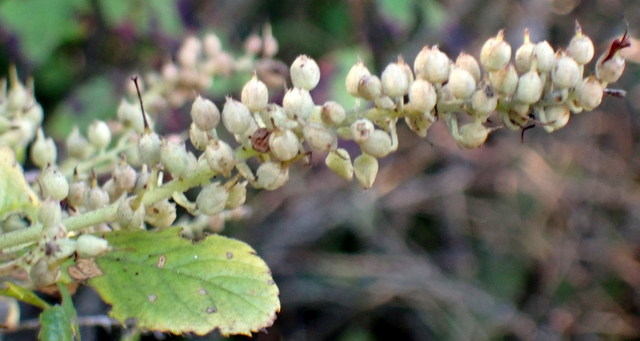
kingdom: Plantae
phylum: Tracheophyta
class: Magnoliopsida
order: Ericales
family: Clethraceae
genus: Clethra
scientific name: Clethra alnifolia
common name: Sweet pepperbush
